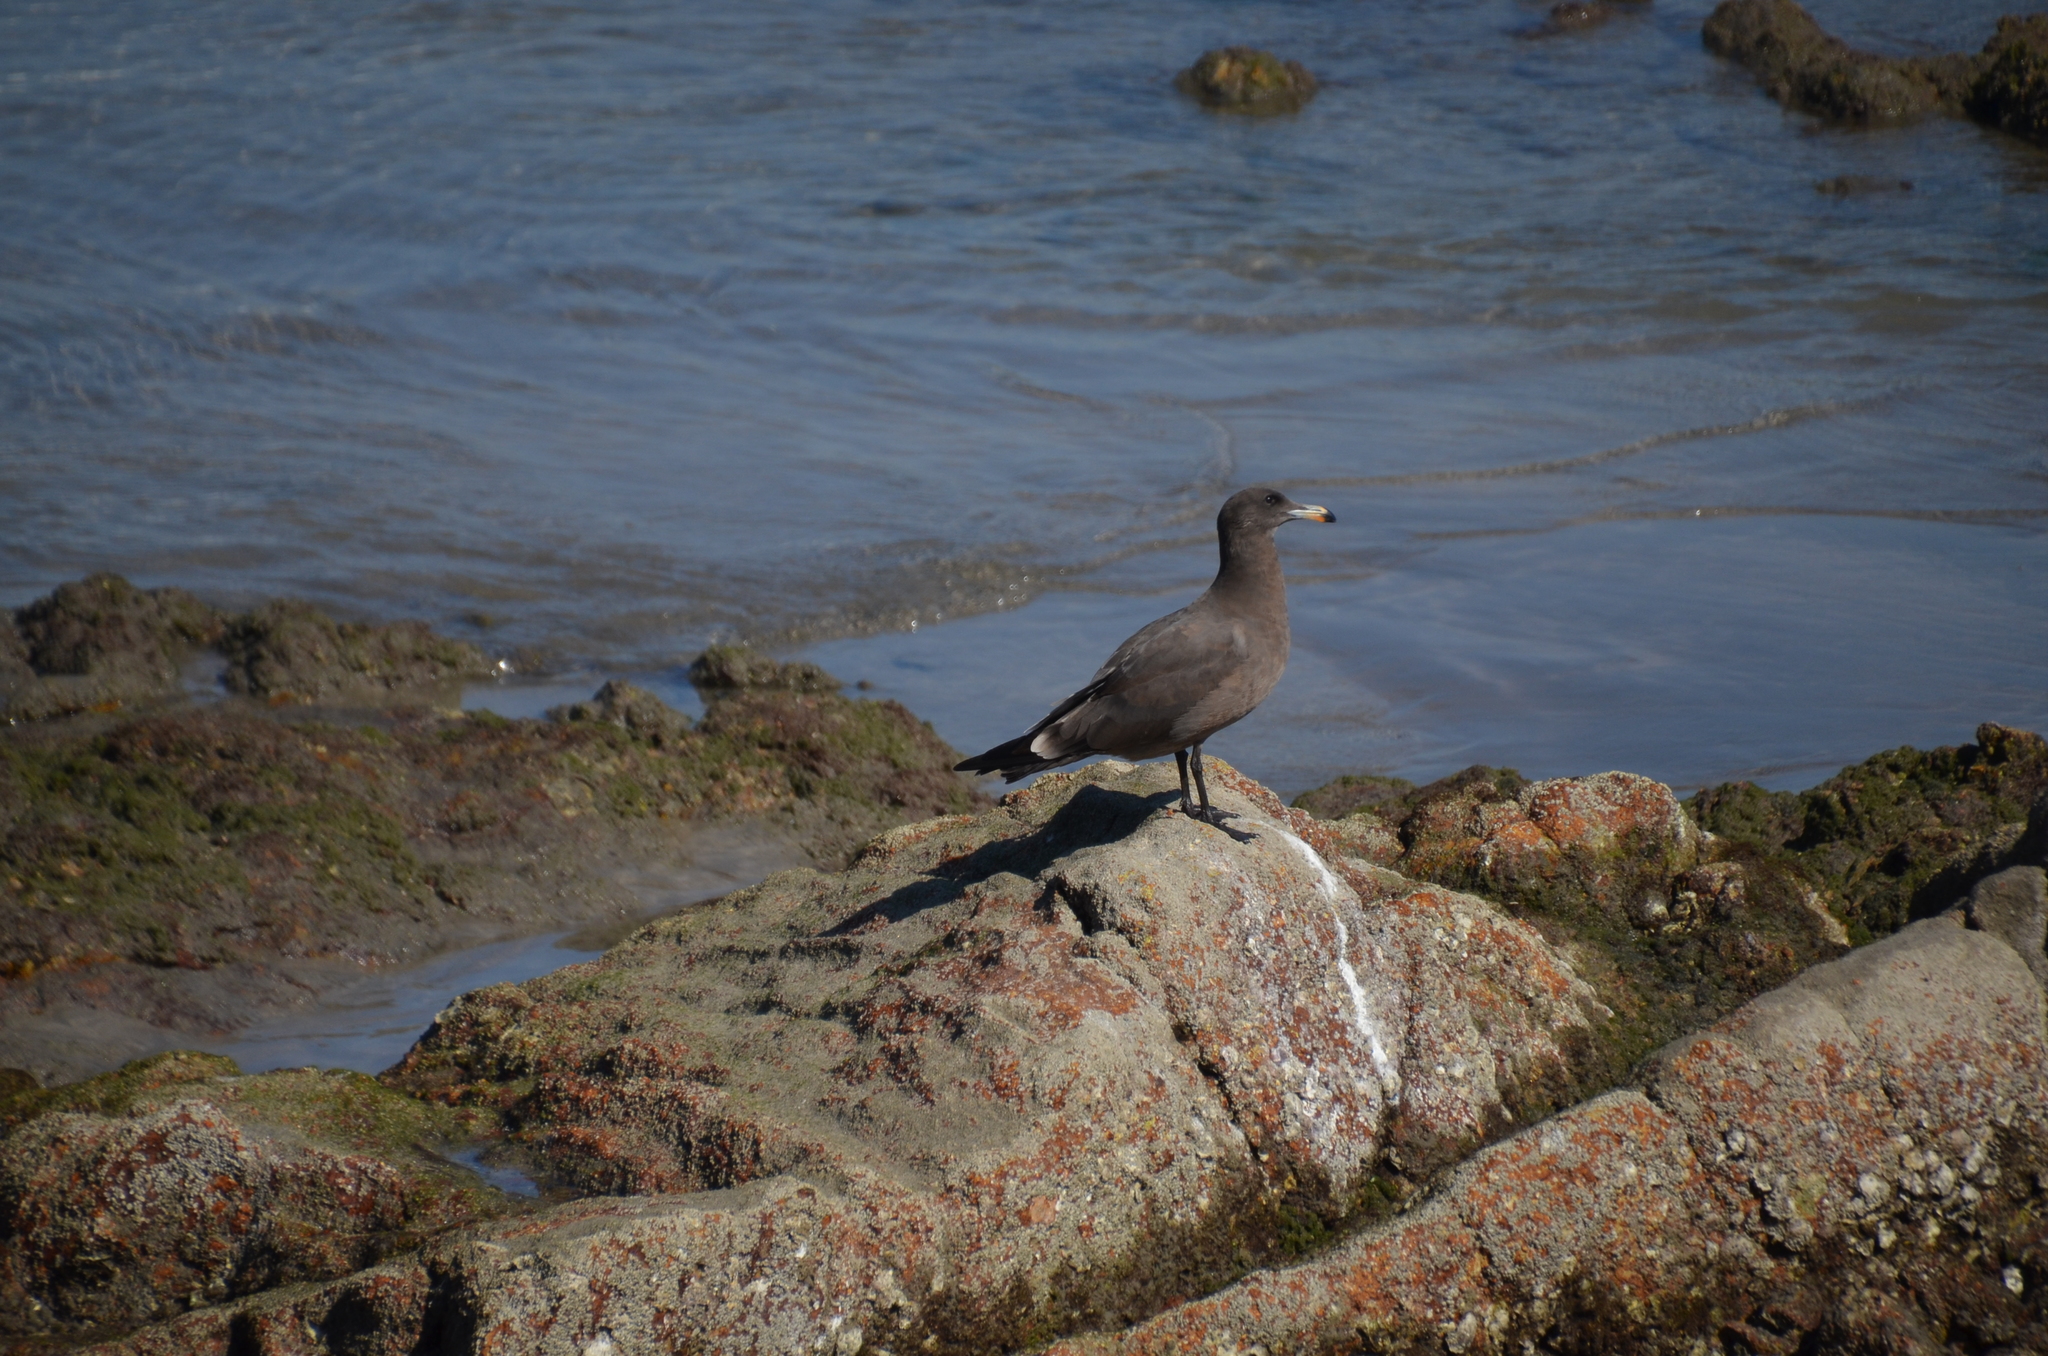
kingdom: Animalia
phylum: Chordata
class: Aves
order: Charadriiformes
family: Laridae
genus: Larus
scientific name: Larus heermanni
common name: Heermann's gull
